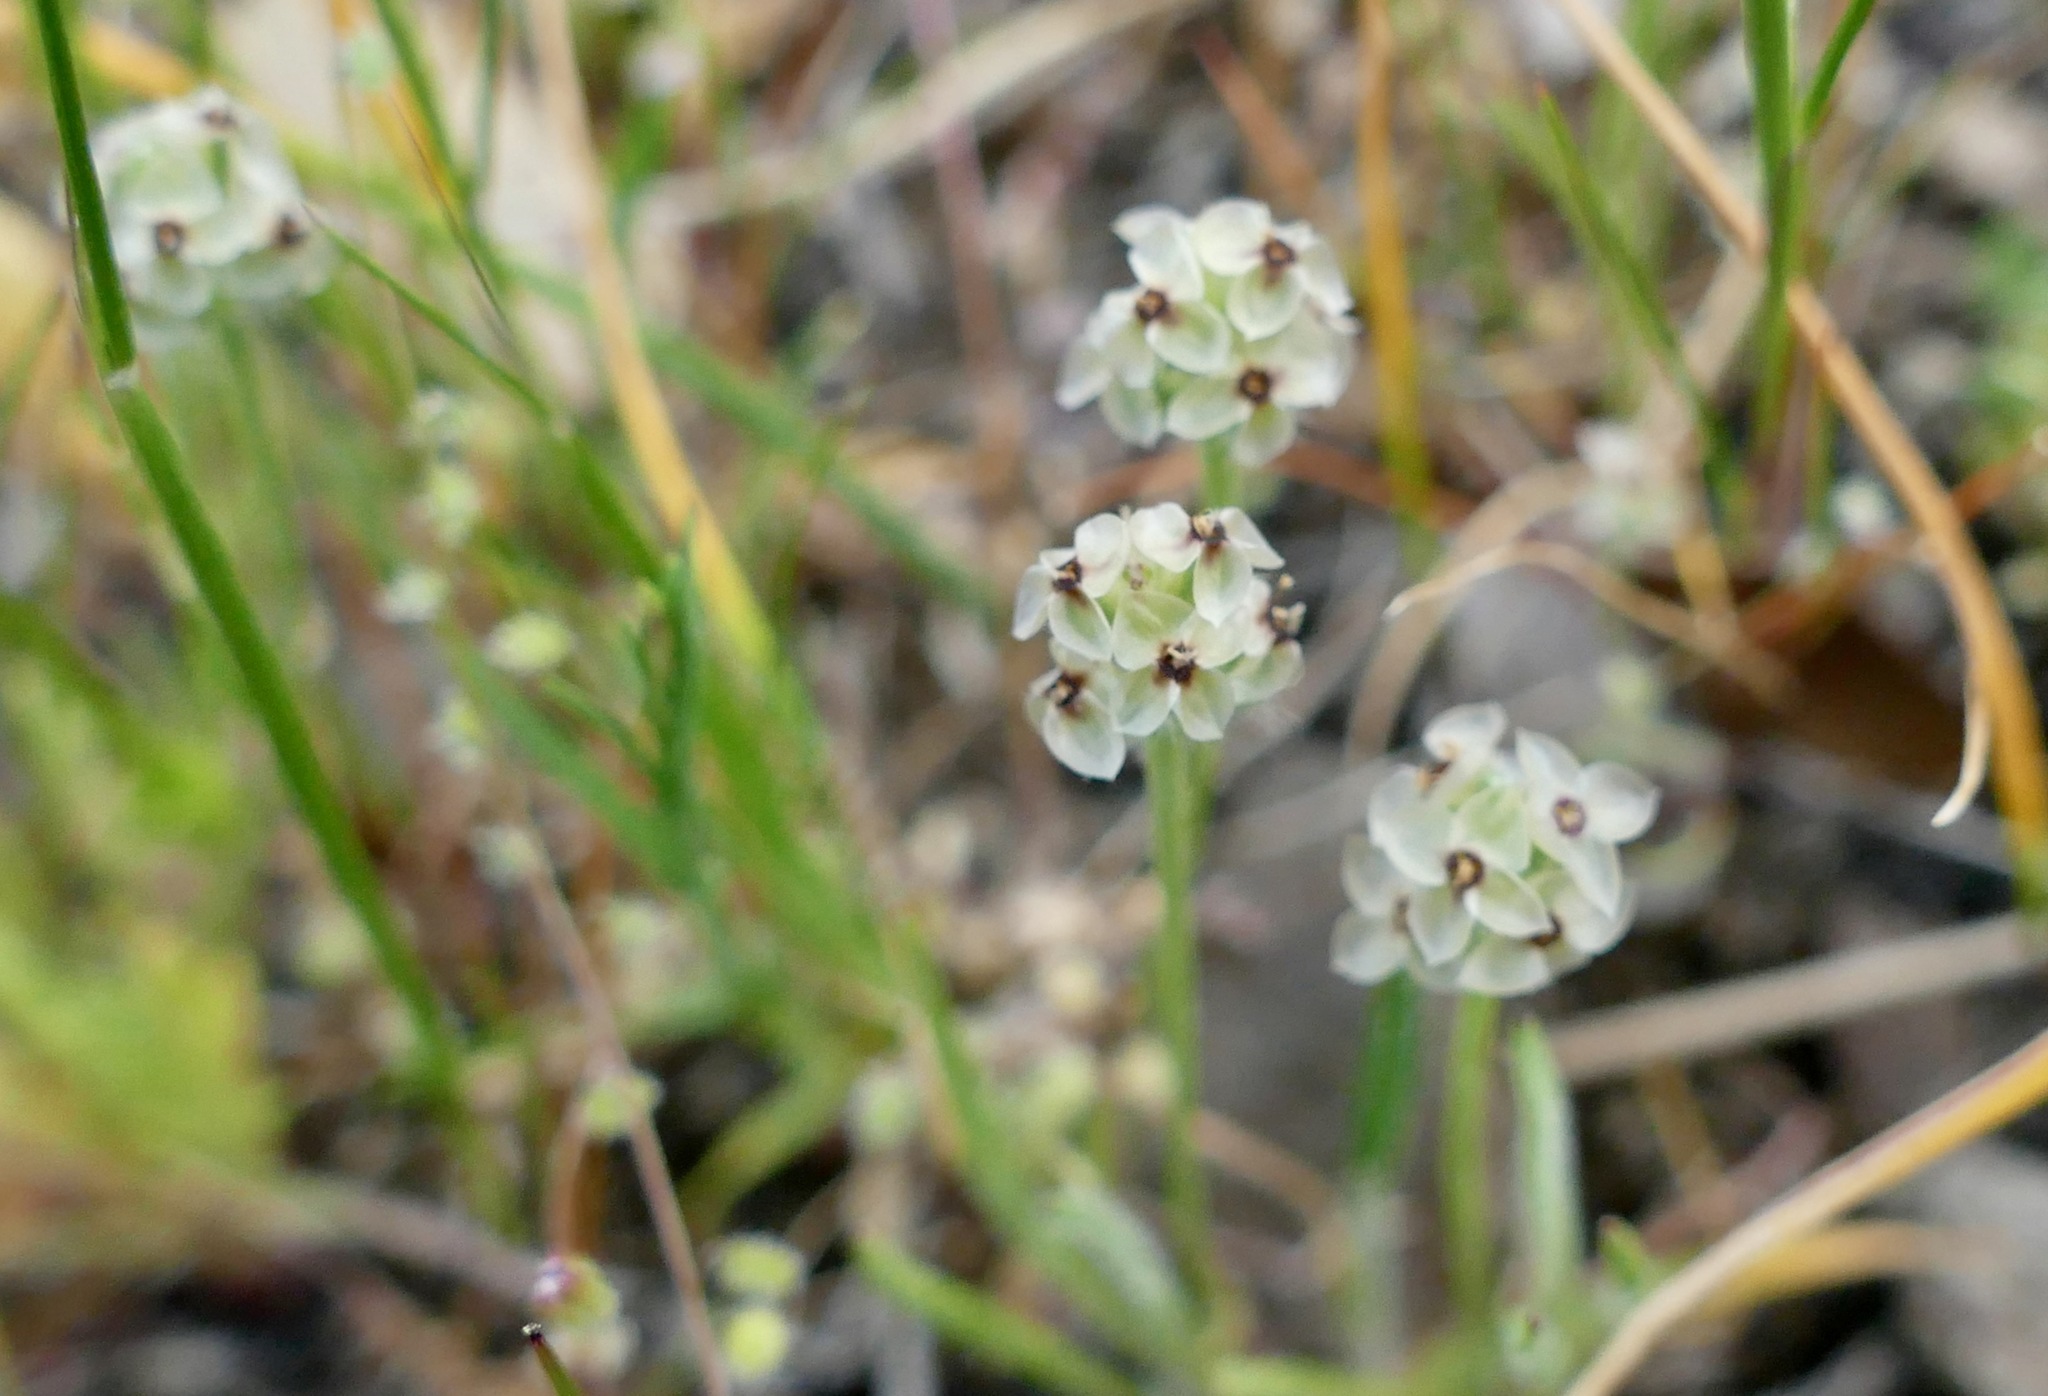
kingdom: Plantae
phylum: Tracheophyta
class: Magnoliopsida
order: Lamiales
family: Plantaginaceae
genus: Plantago
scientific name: Plantago erecta
